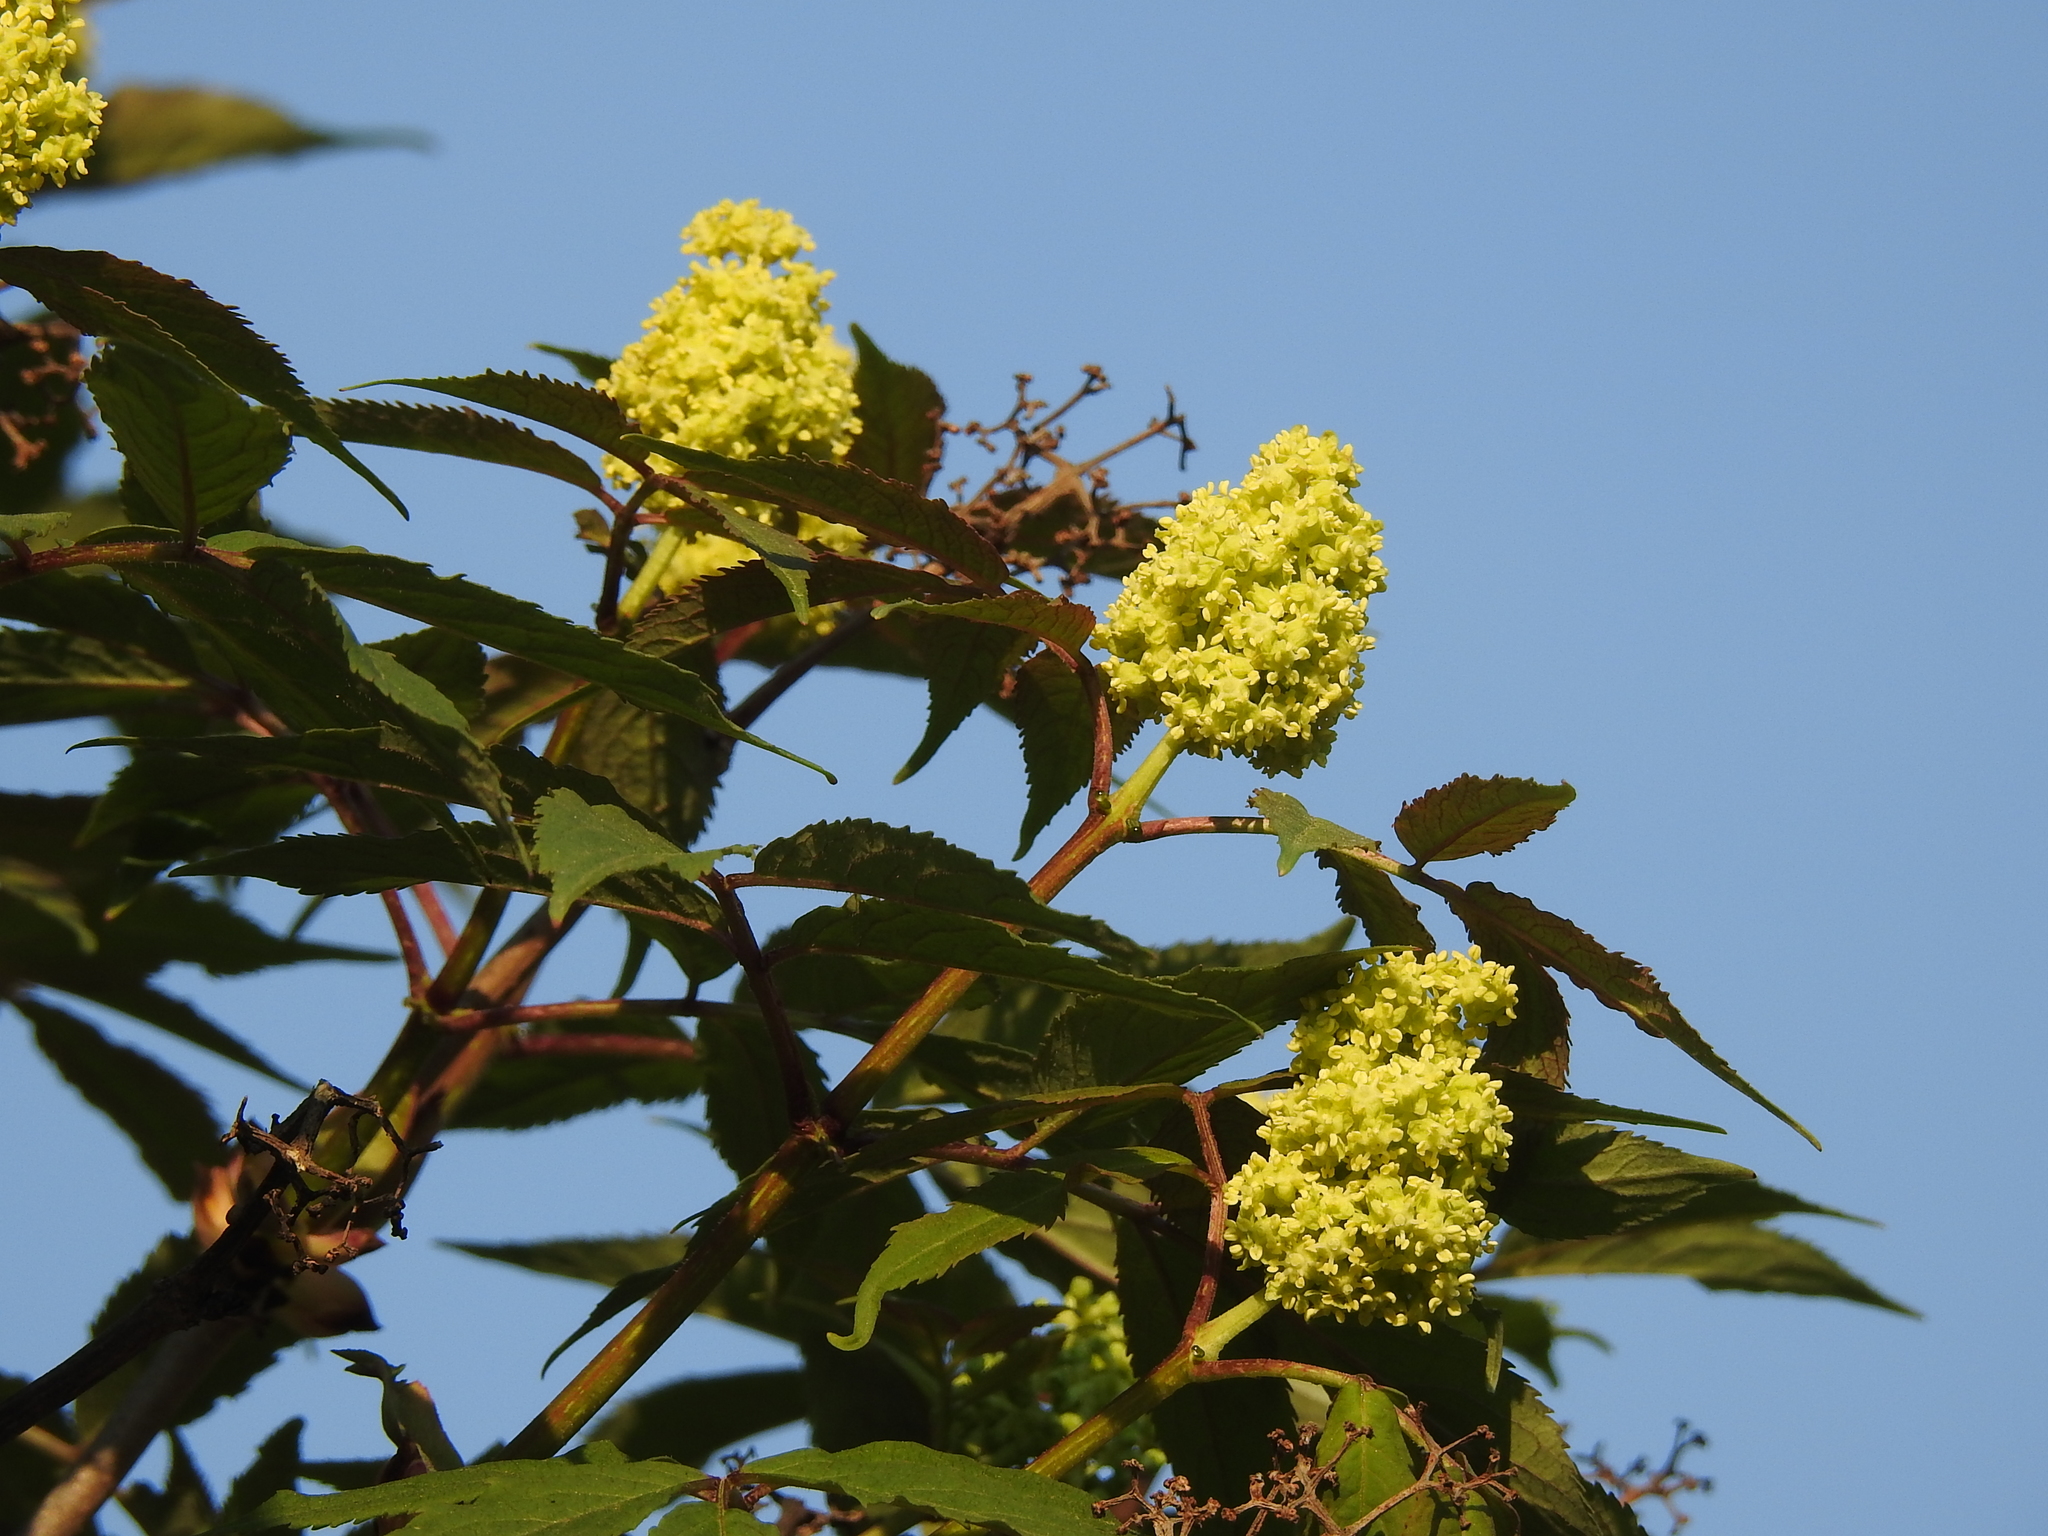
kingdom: Plantae
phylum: Tracheophyta
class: Magnoliopsida
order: Dipsacales
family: Viburnaceae
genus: Sambucus
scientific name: Sambucus racemosa
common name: Red-berried elder
